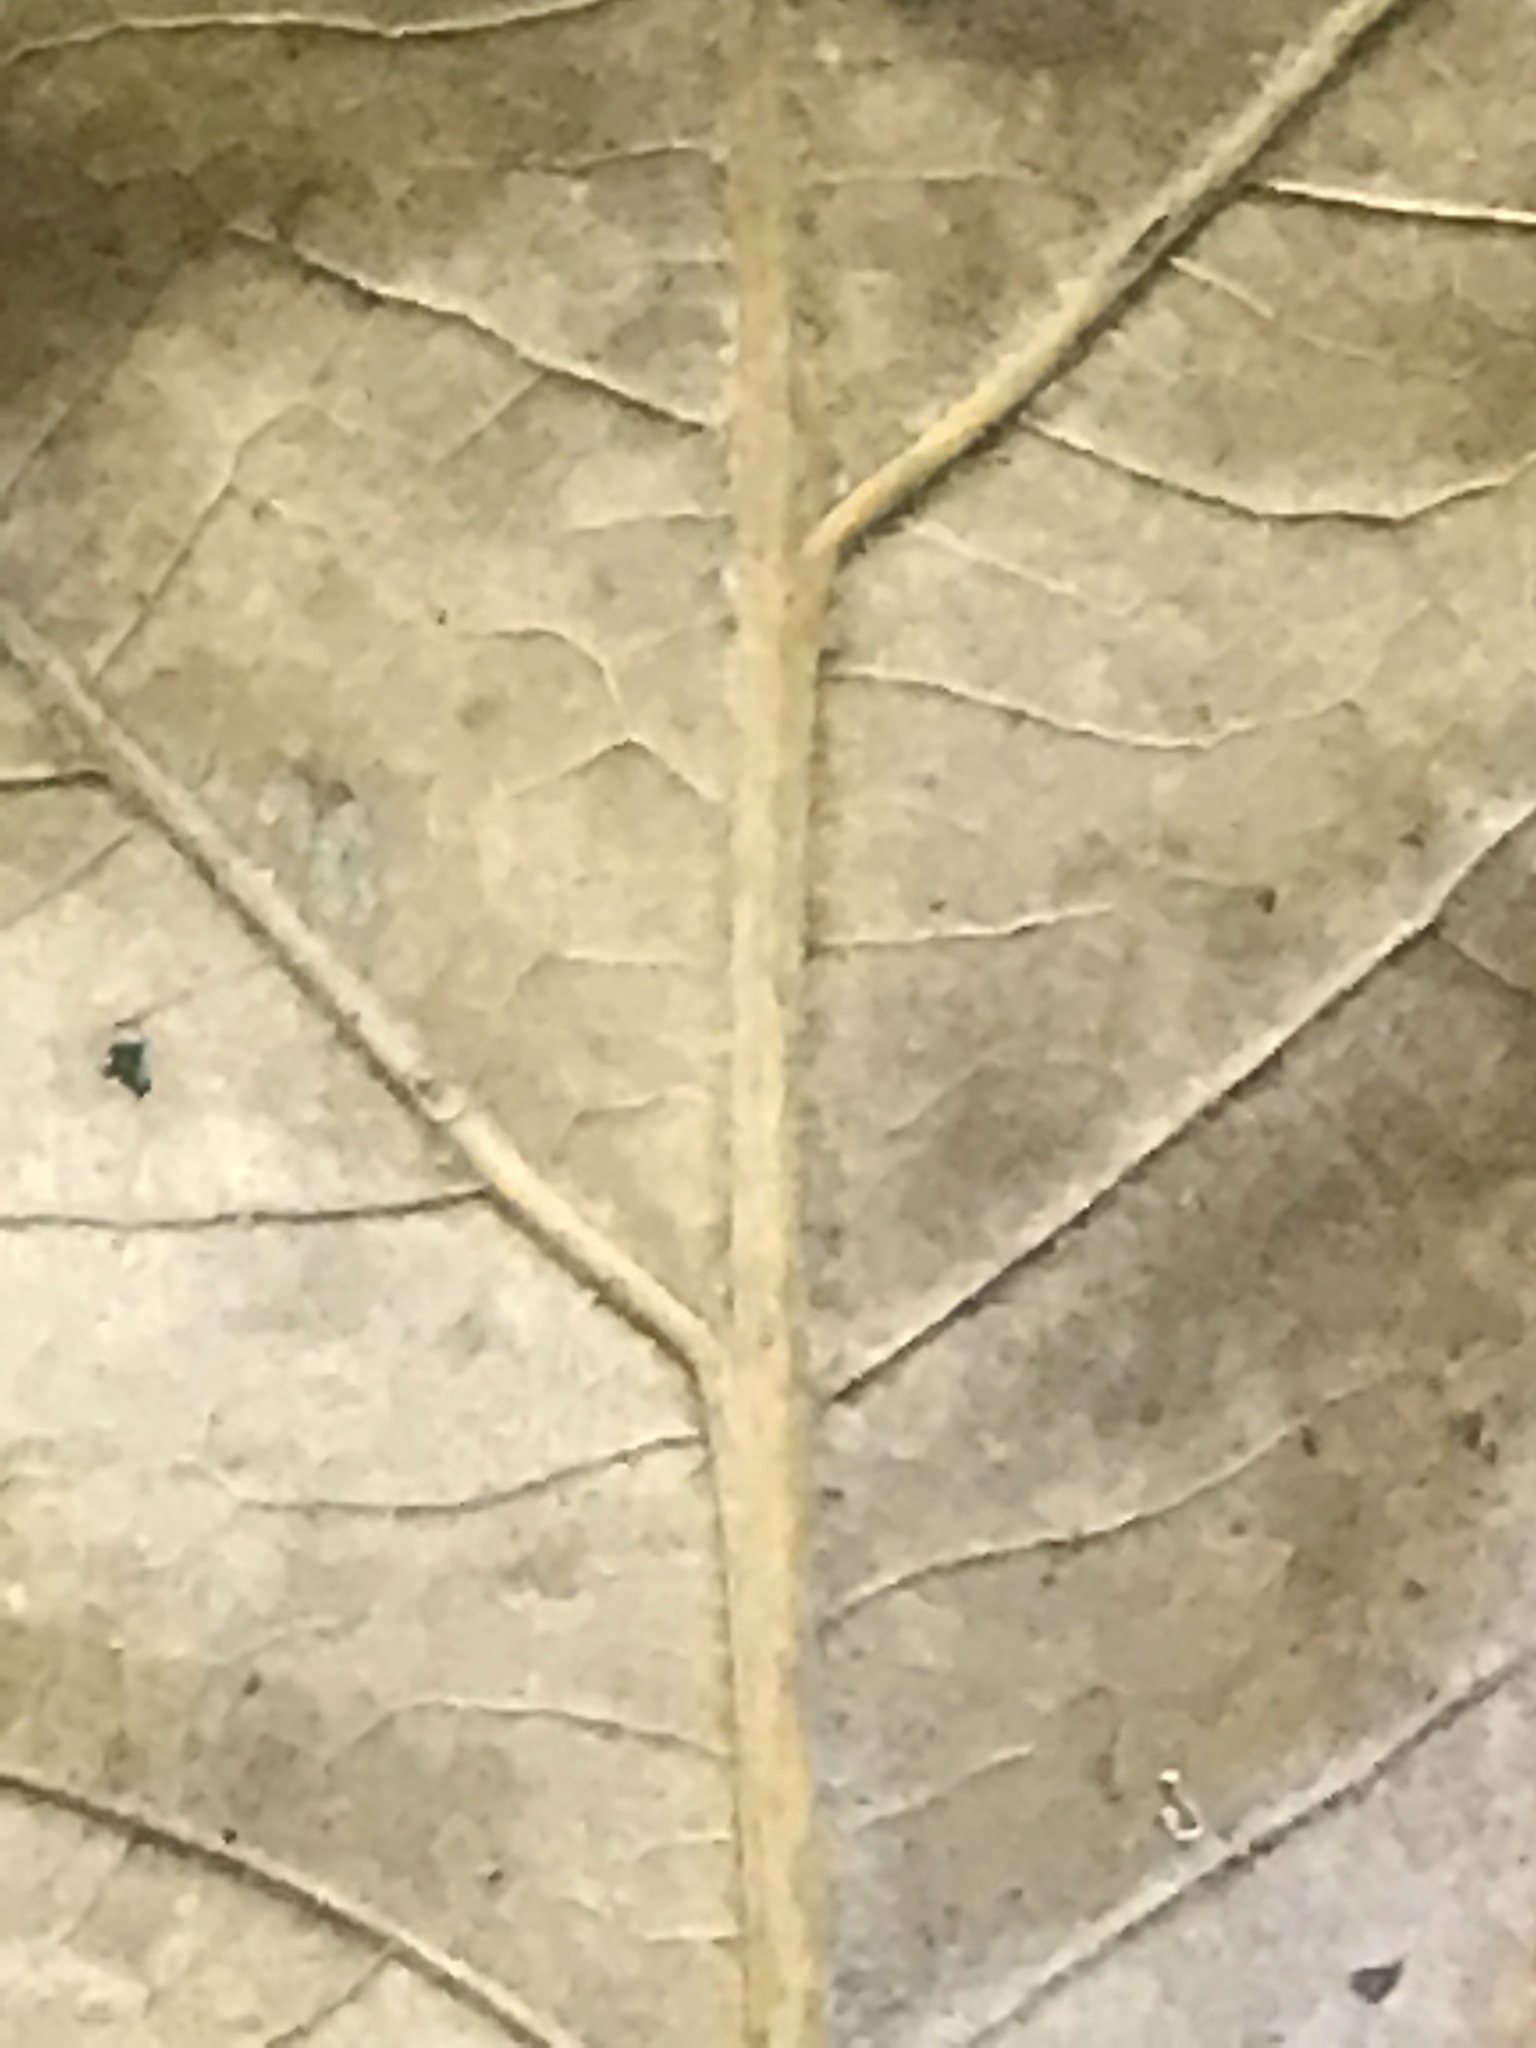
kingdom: Plantae
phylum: Tracheophyta
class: Magnoliopsida
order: Fagales
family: Fagaceae
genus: Quercus
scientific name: Quercus pagoda
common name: Cherrybark oak
